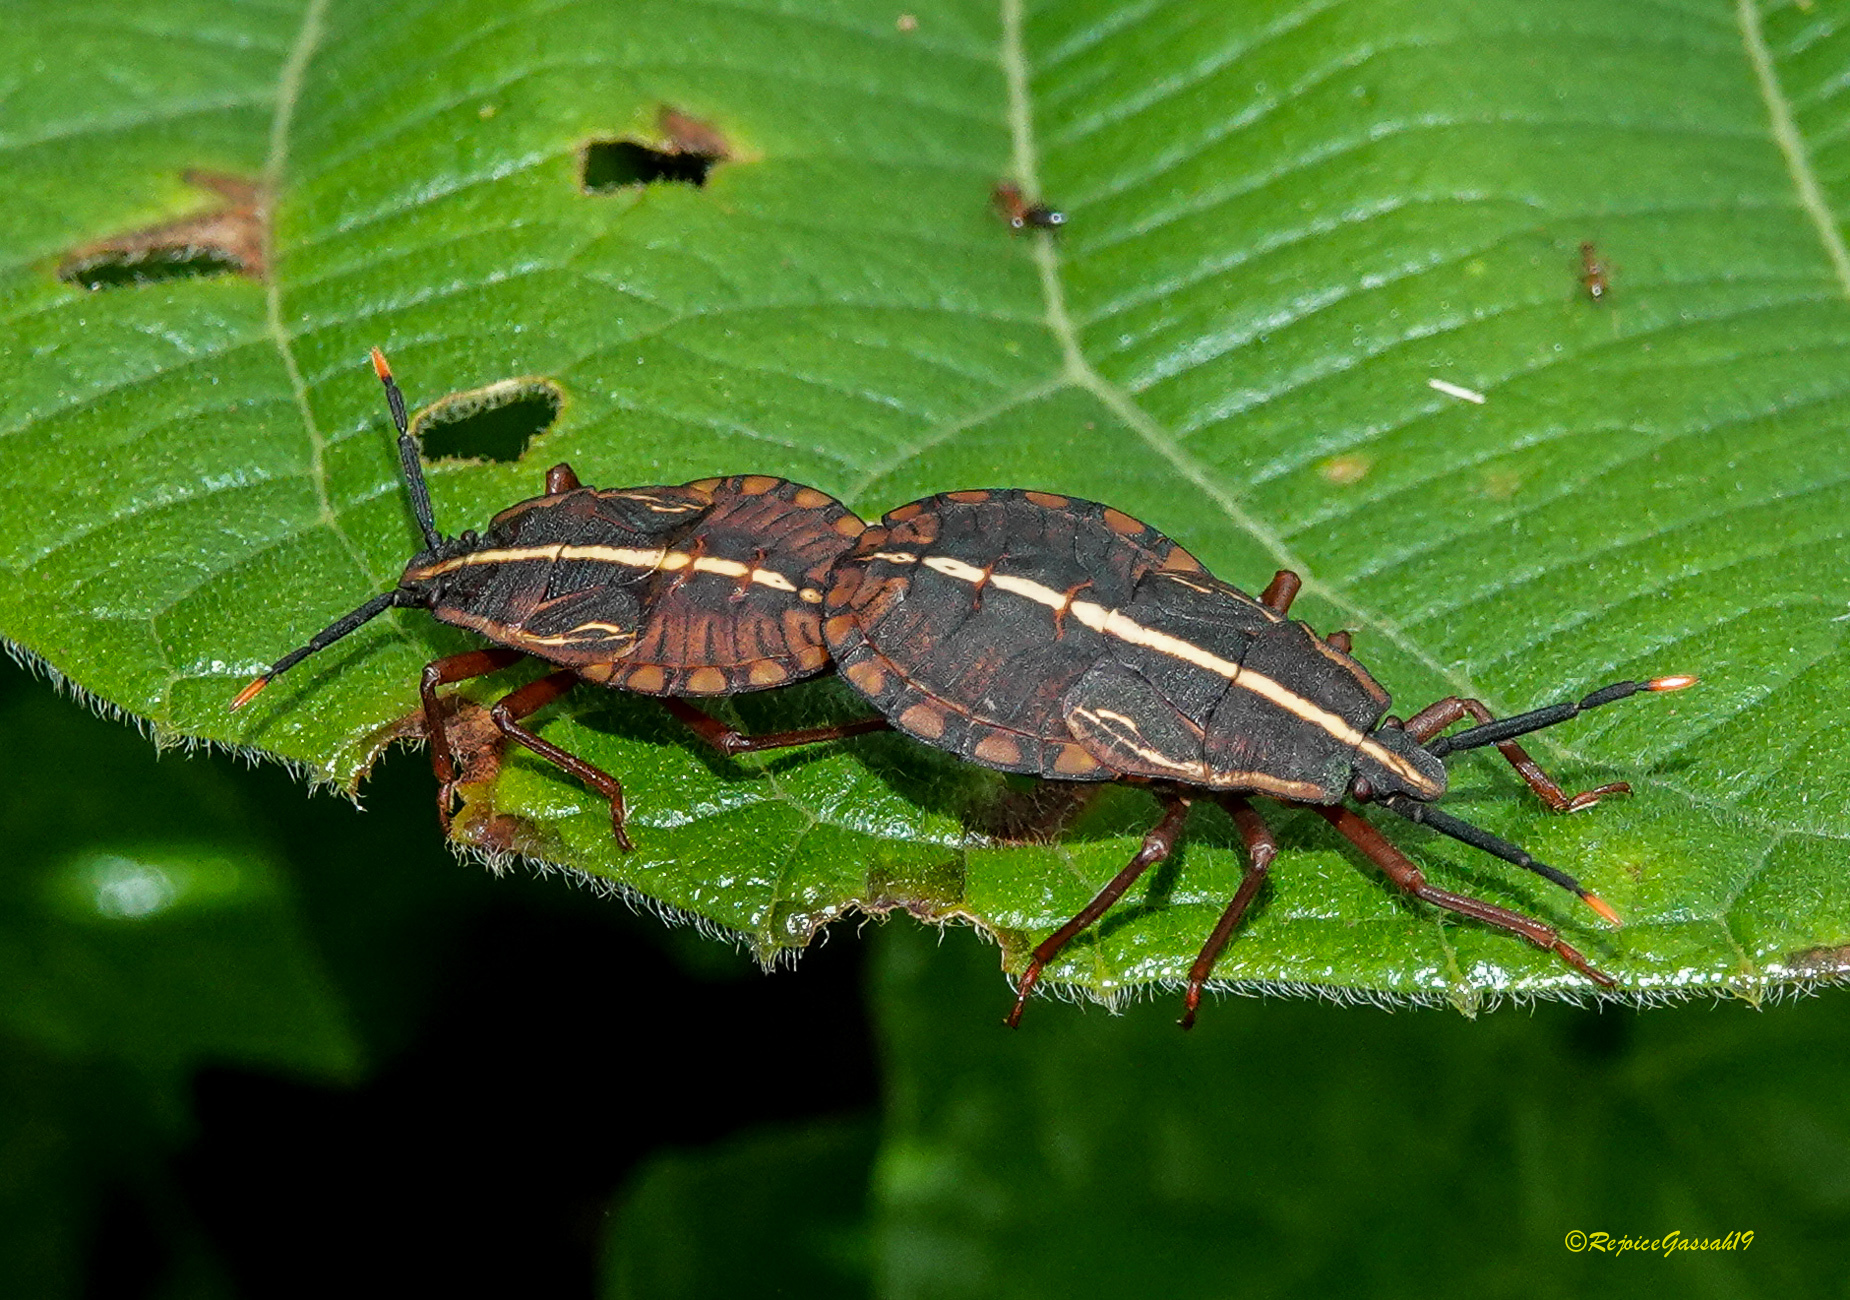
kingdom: Animalia
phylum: Arthropoda
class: Insecta
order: Hemiptera
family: Dinidoridae
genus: Sagriva
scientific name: Sagriva vittata
